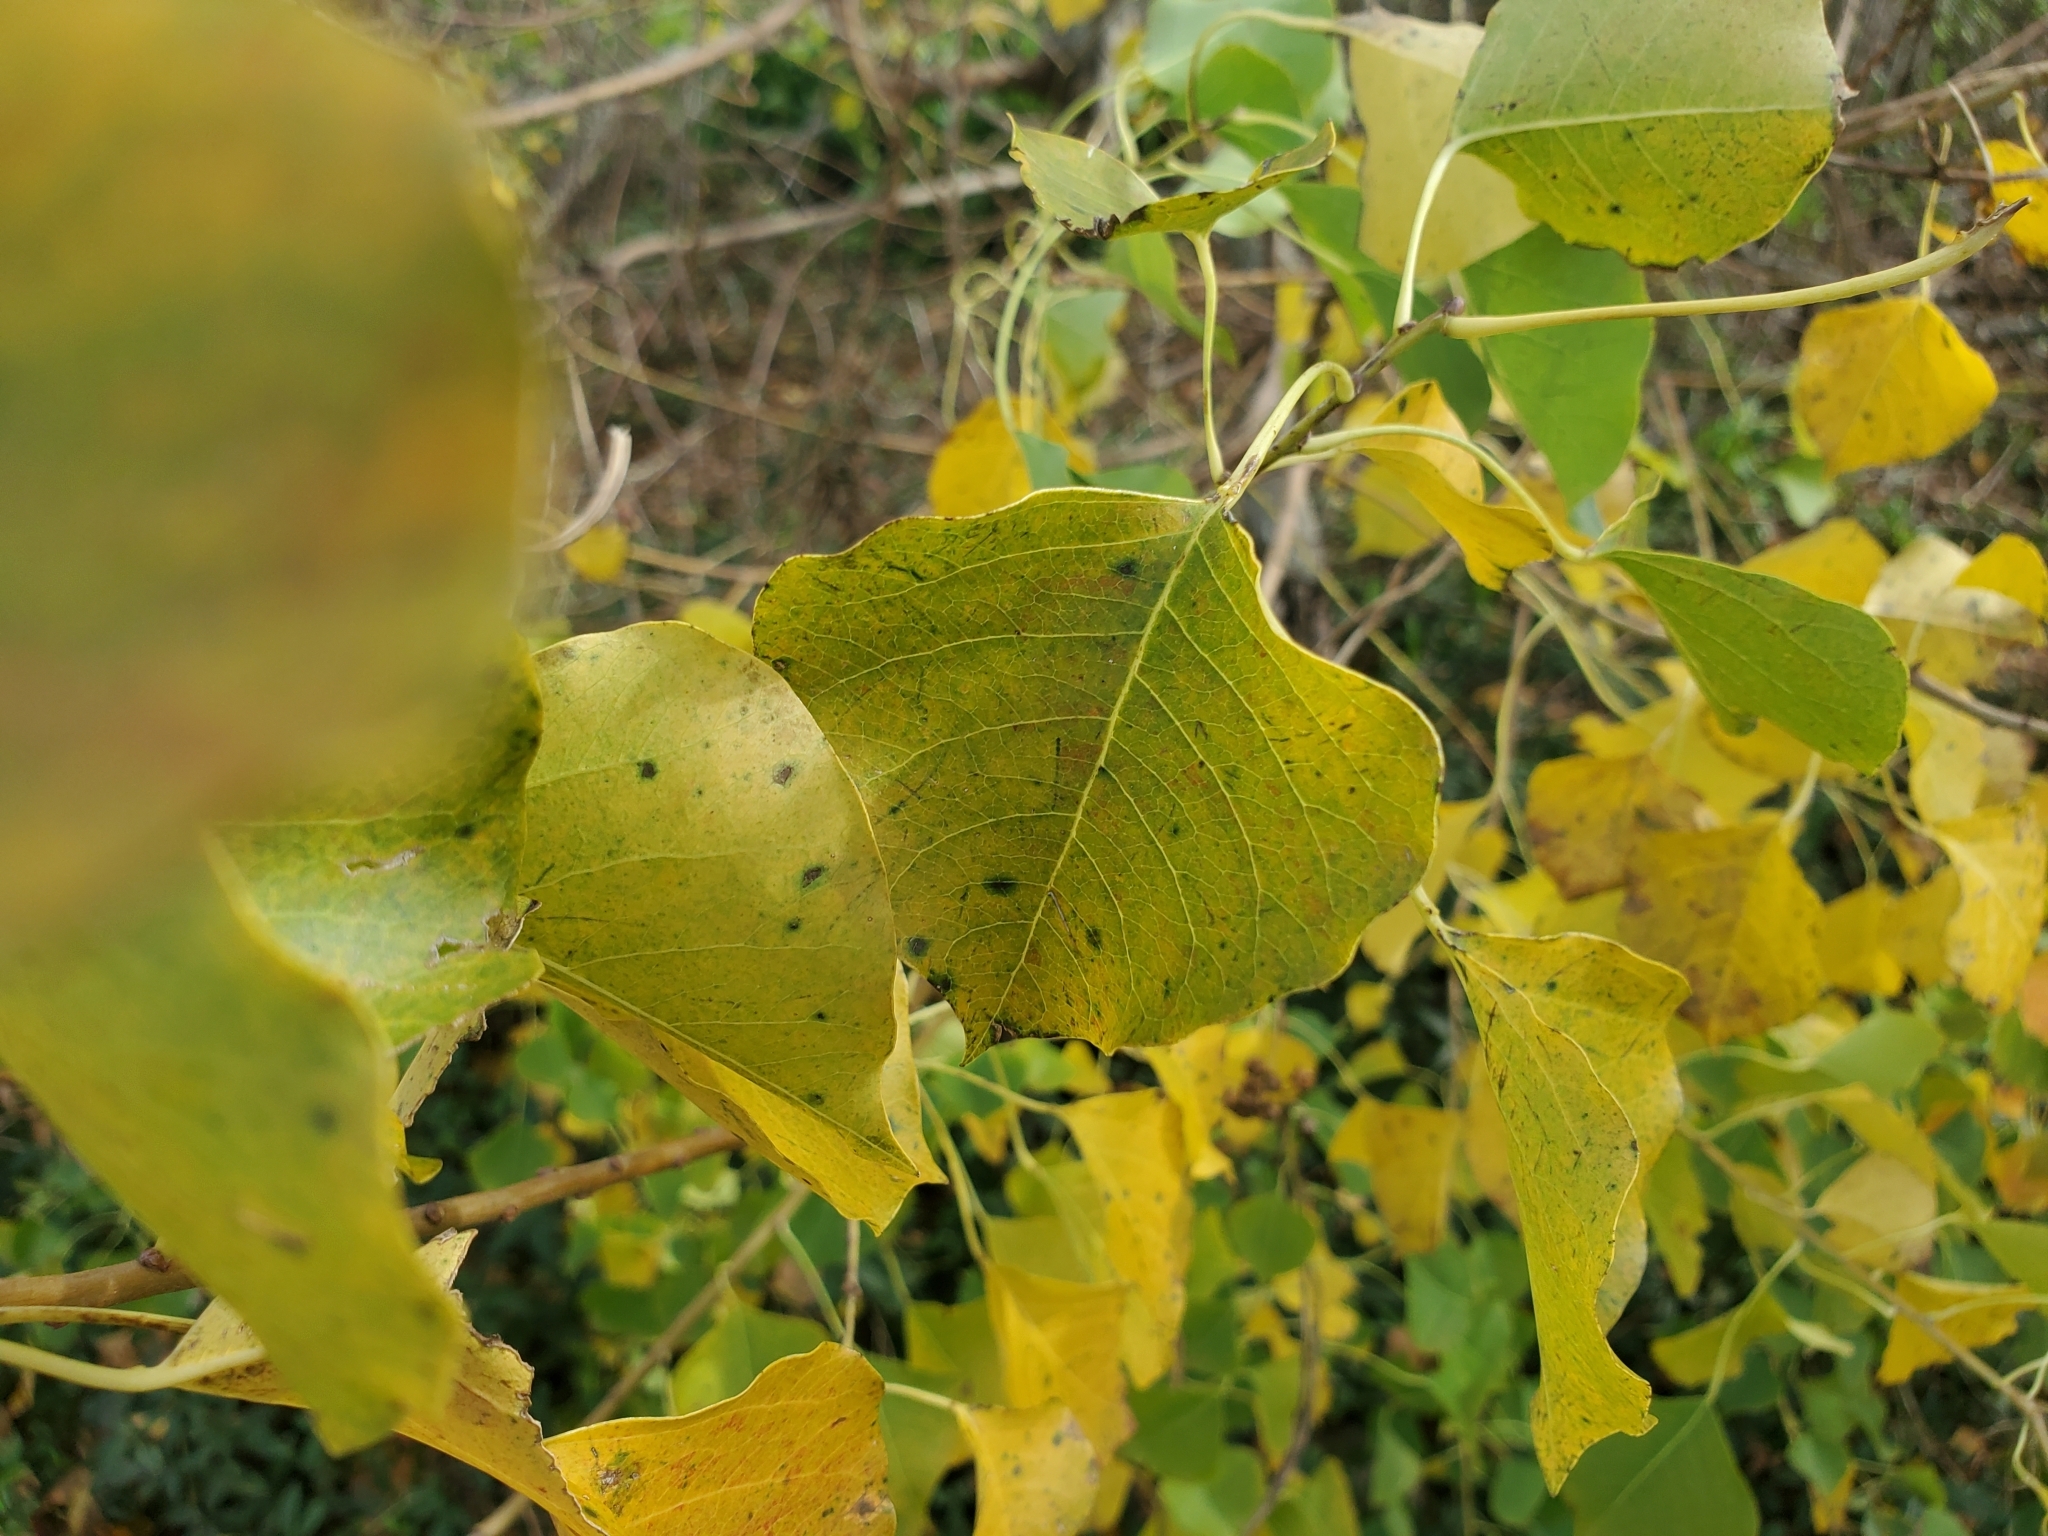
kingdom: Plantae
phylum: Tracheophyta
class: Magnoliopsida
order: Malpighiales
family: Euphorbiaceae
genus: Triadica
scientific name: Triadica sebifera
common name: Chinese tallow
